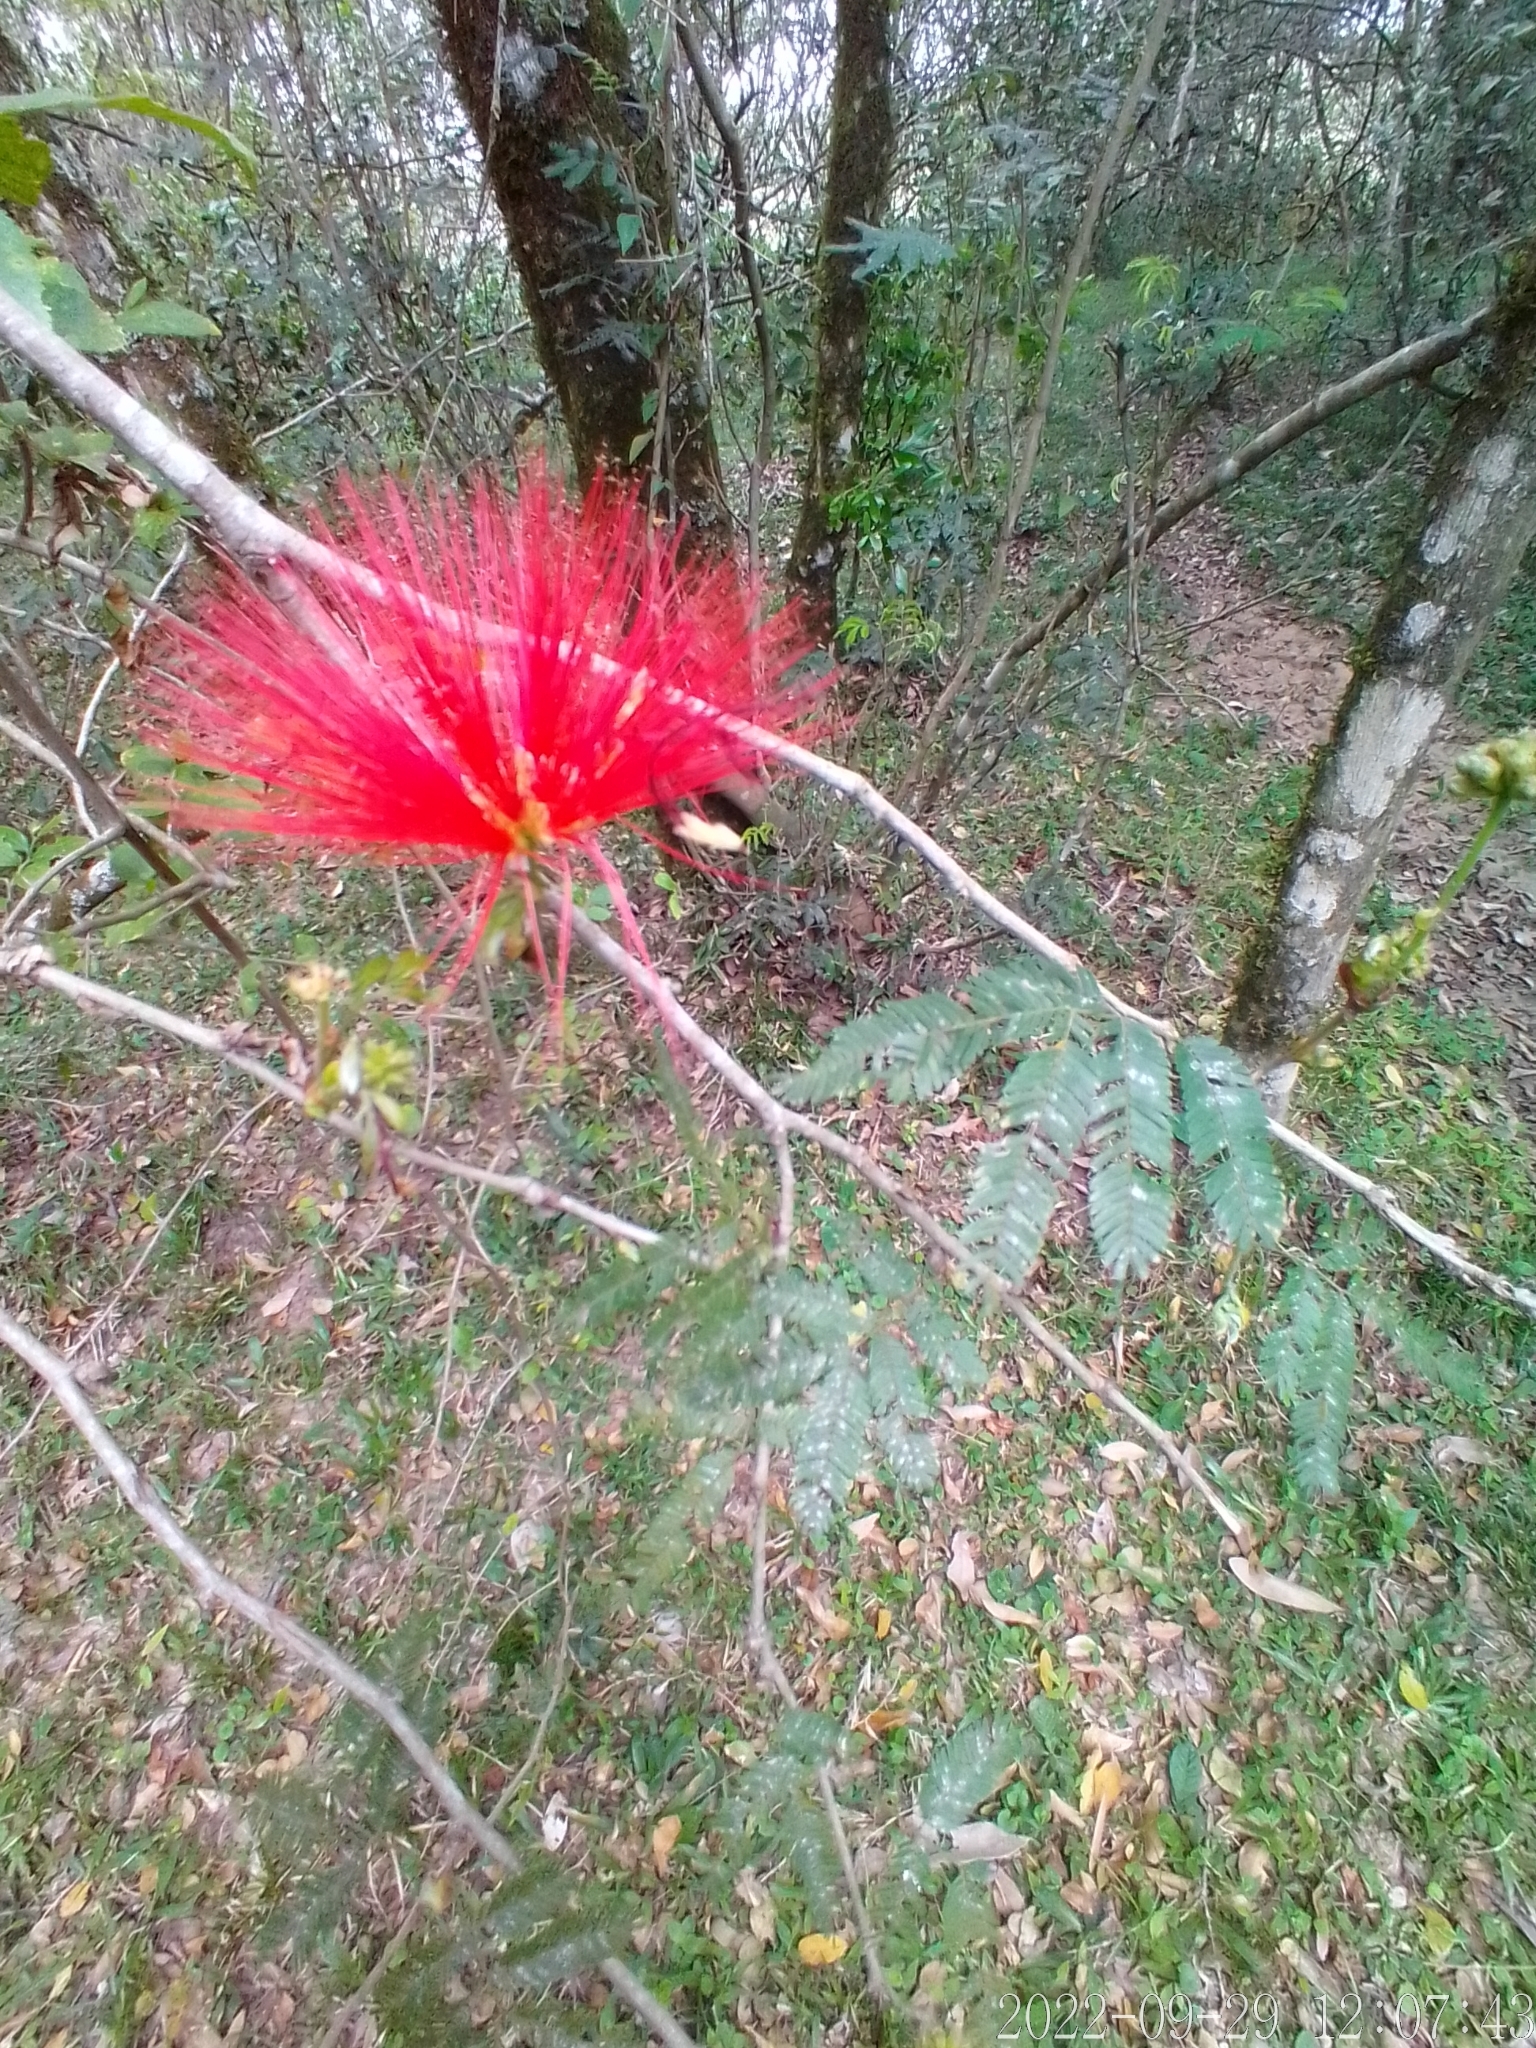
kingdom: Plantae
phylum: Tracheophyta
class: Magnoliopsida
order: Fabales
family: Fabaceae
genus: Calliandra
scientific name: Calliandra tweediei
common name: Mexican flamebush
